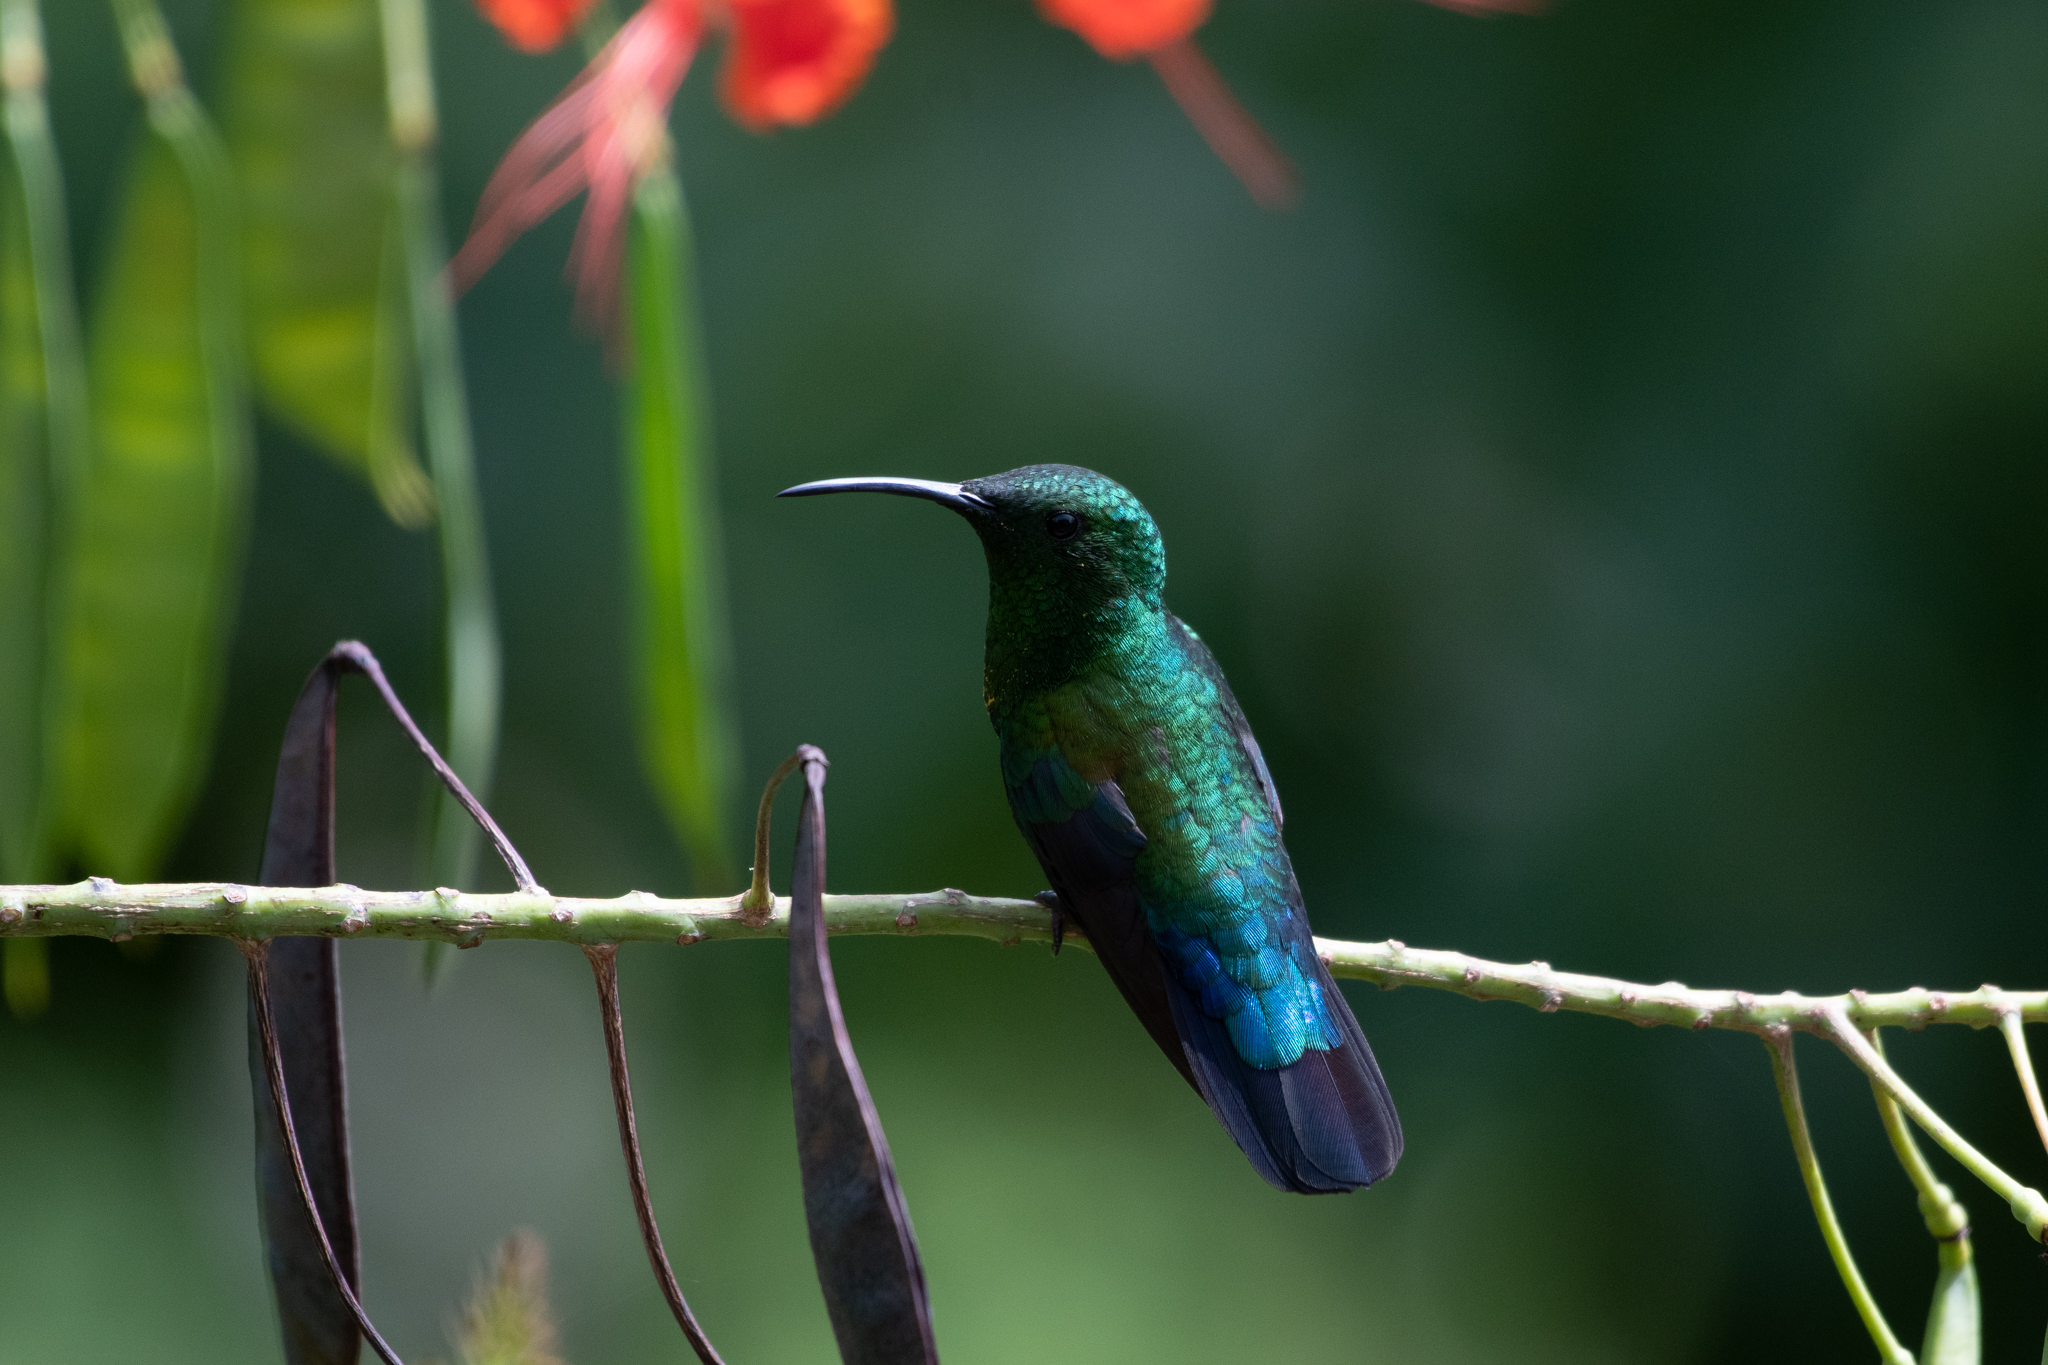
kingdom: Animalia
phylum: Chordata
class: Aves
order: Apodiformes
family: Trochilidae
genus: Eulampis
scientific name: Eulampis holosericeus
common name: Green-throated carib
